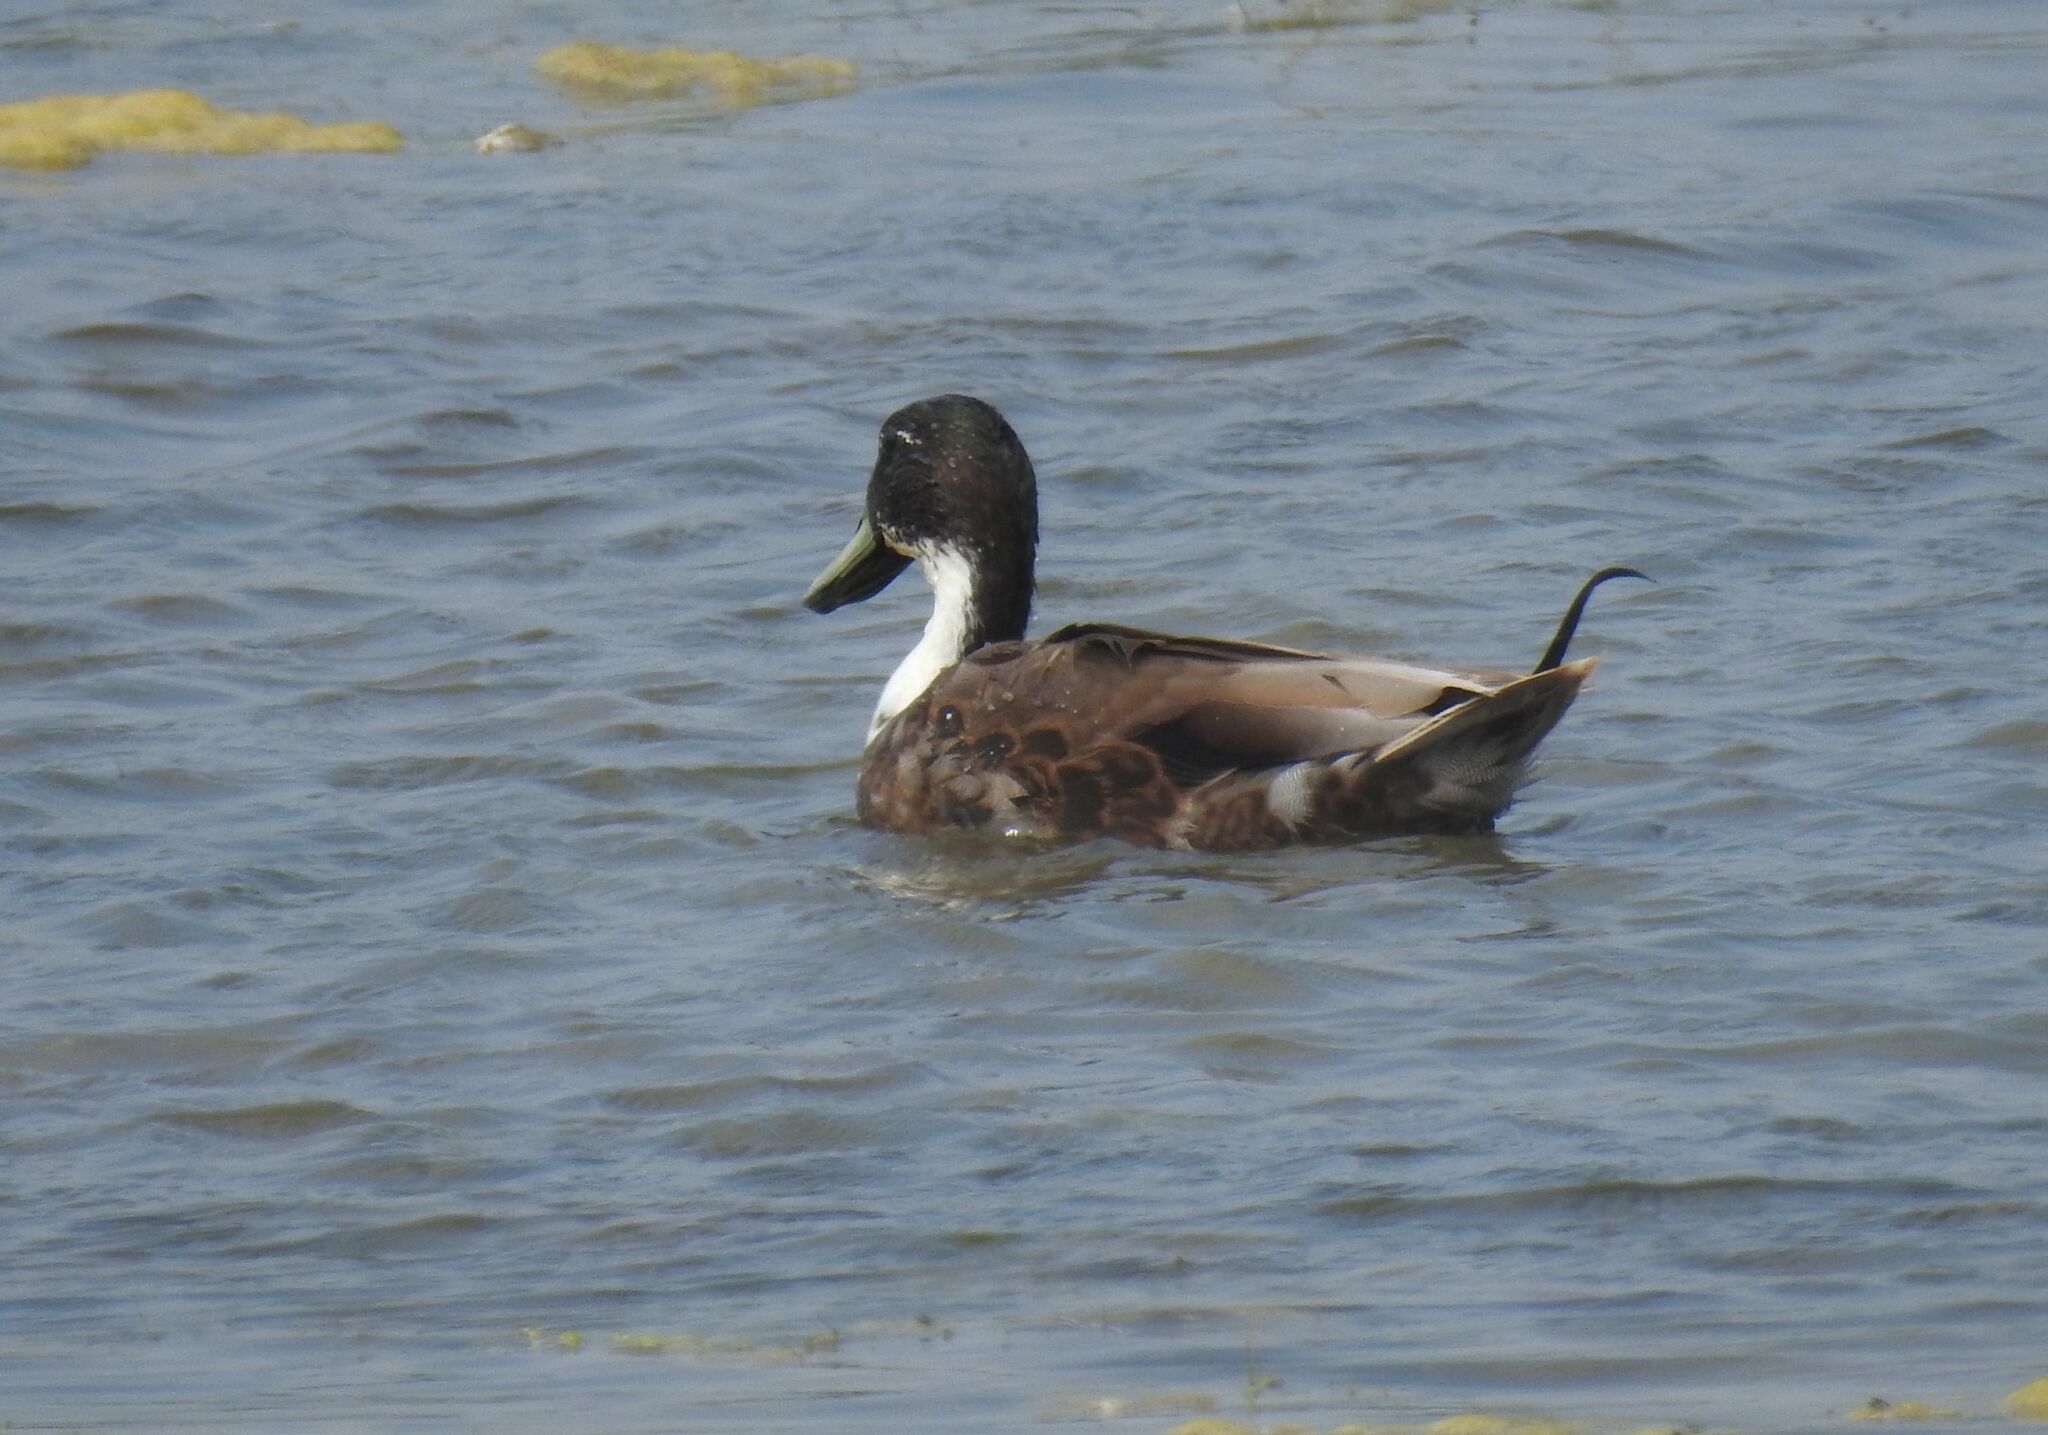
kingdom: Animalia
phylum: Chordata
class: Aves
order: Anseriformes
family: Anatidae
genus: Anas
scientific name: Anas platyrhynchos
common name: Mallard
